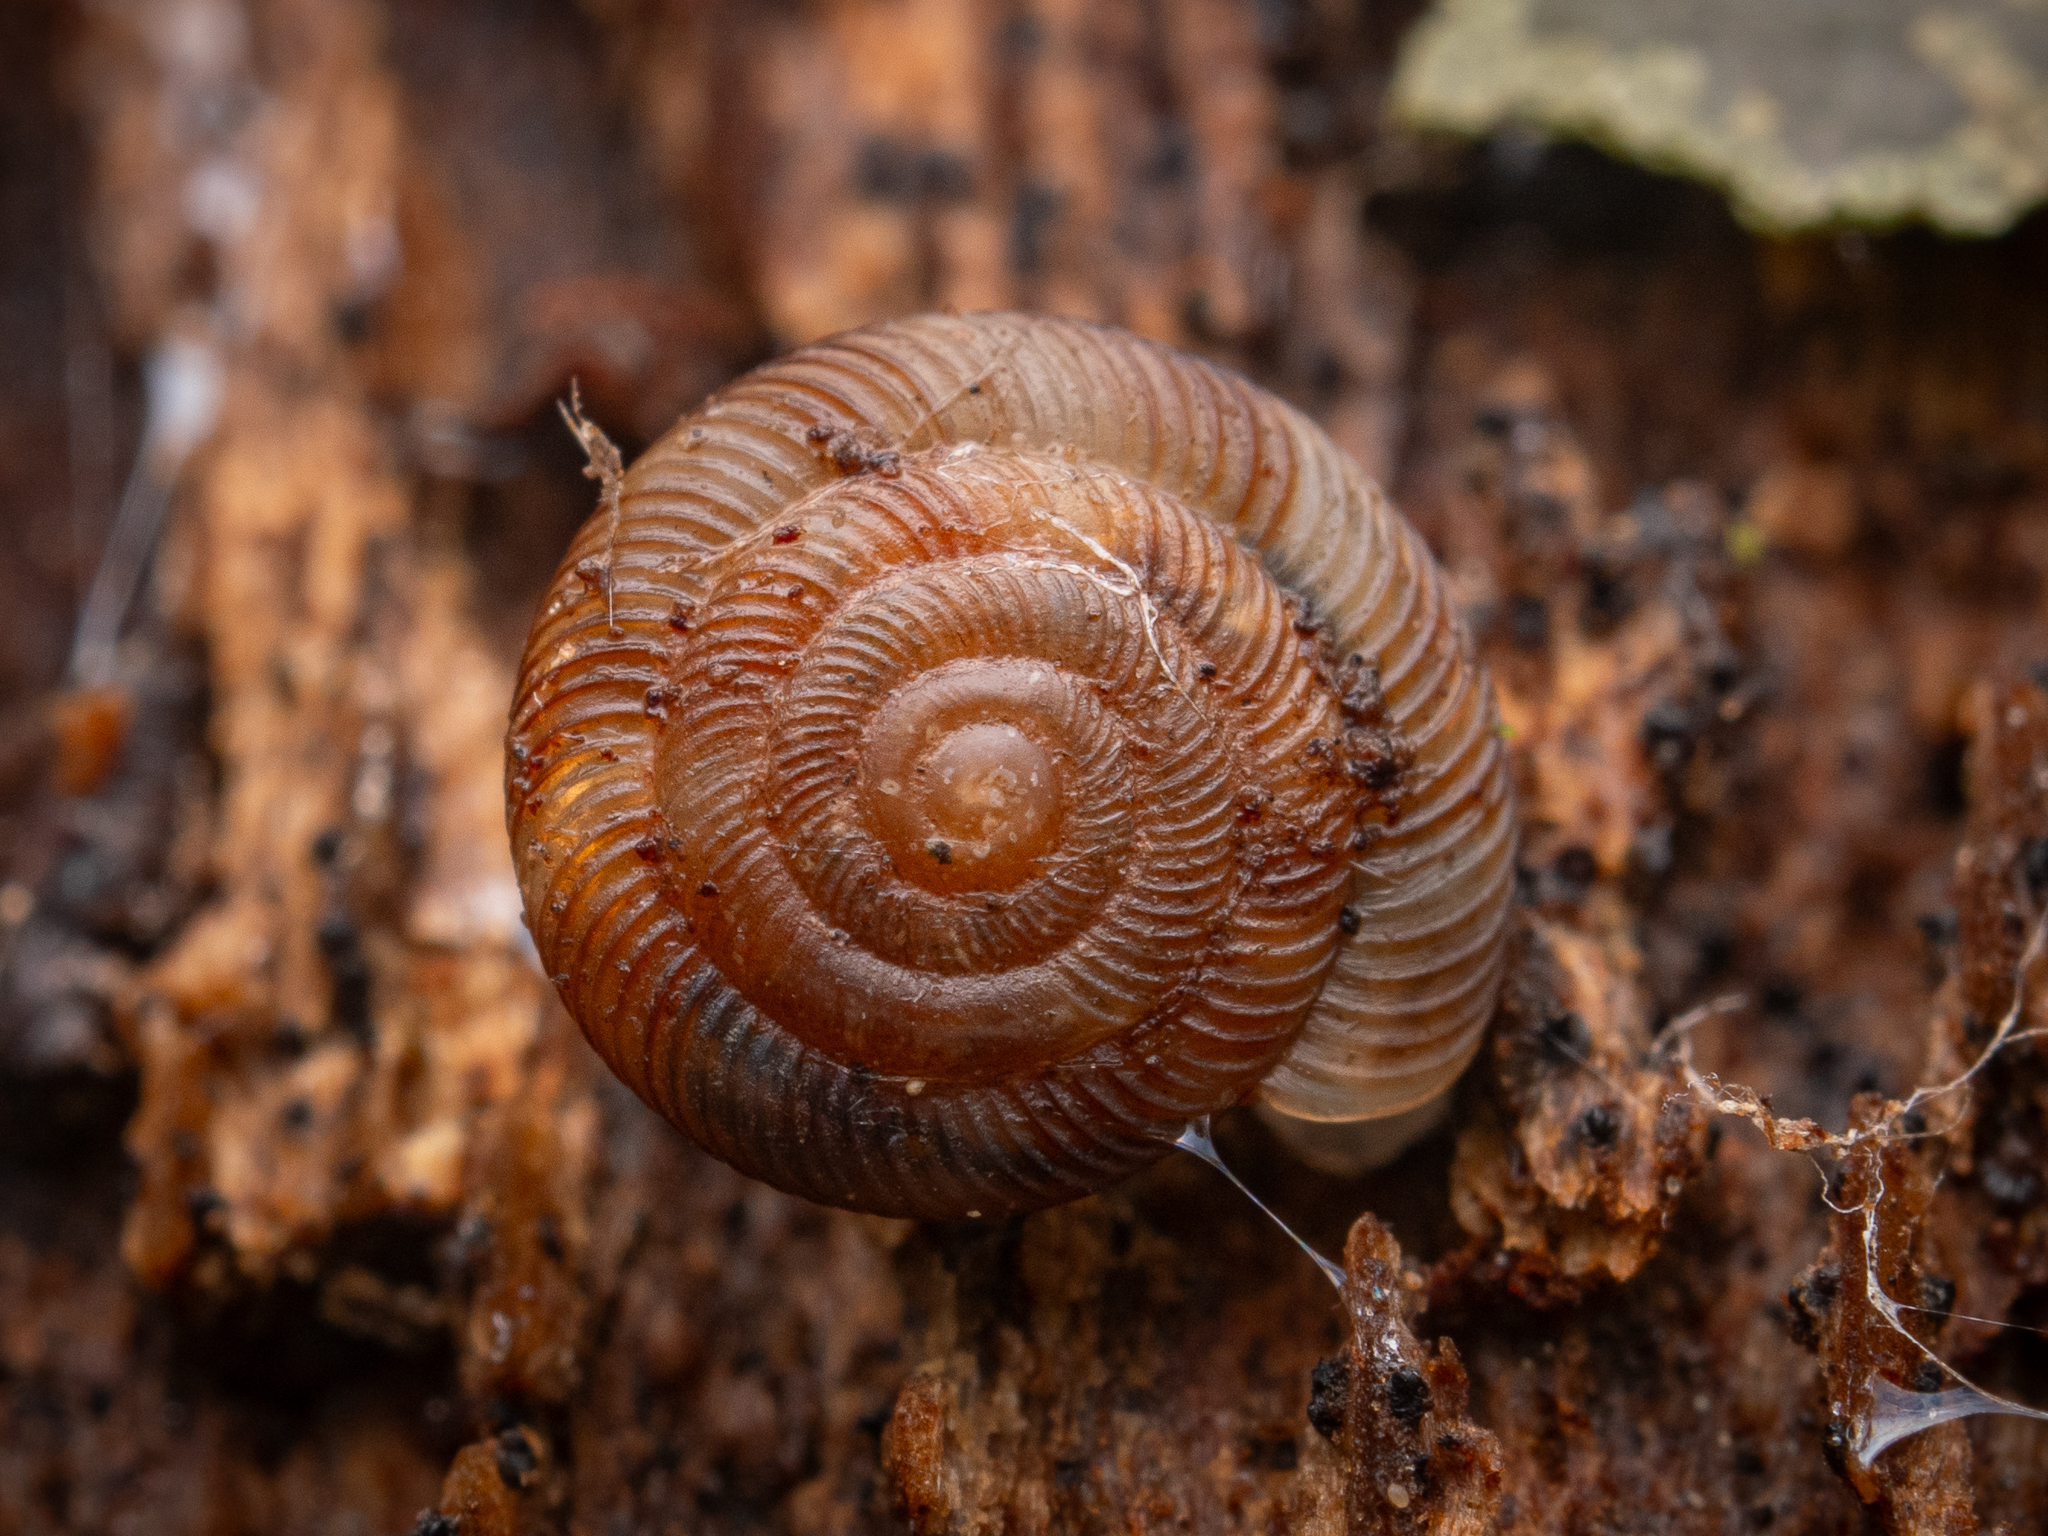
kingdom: Animalia
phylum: Mollusca
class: Gastropoda
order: Stylommatophora
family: Discidae
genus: Discus
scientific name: Discus rotundatus
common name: Rounded snail
